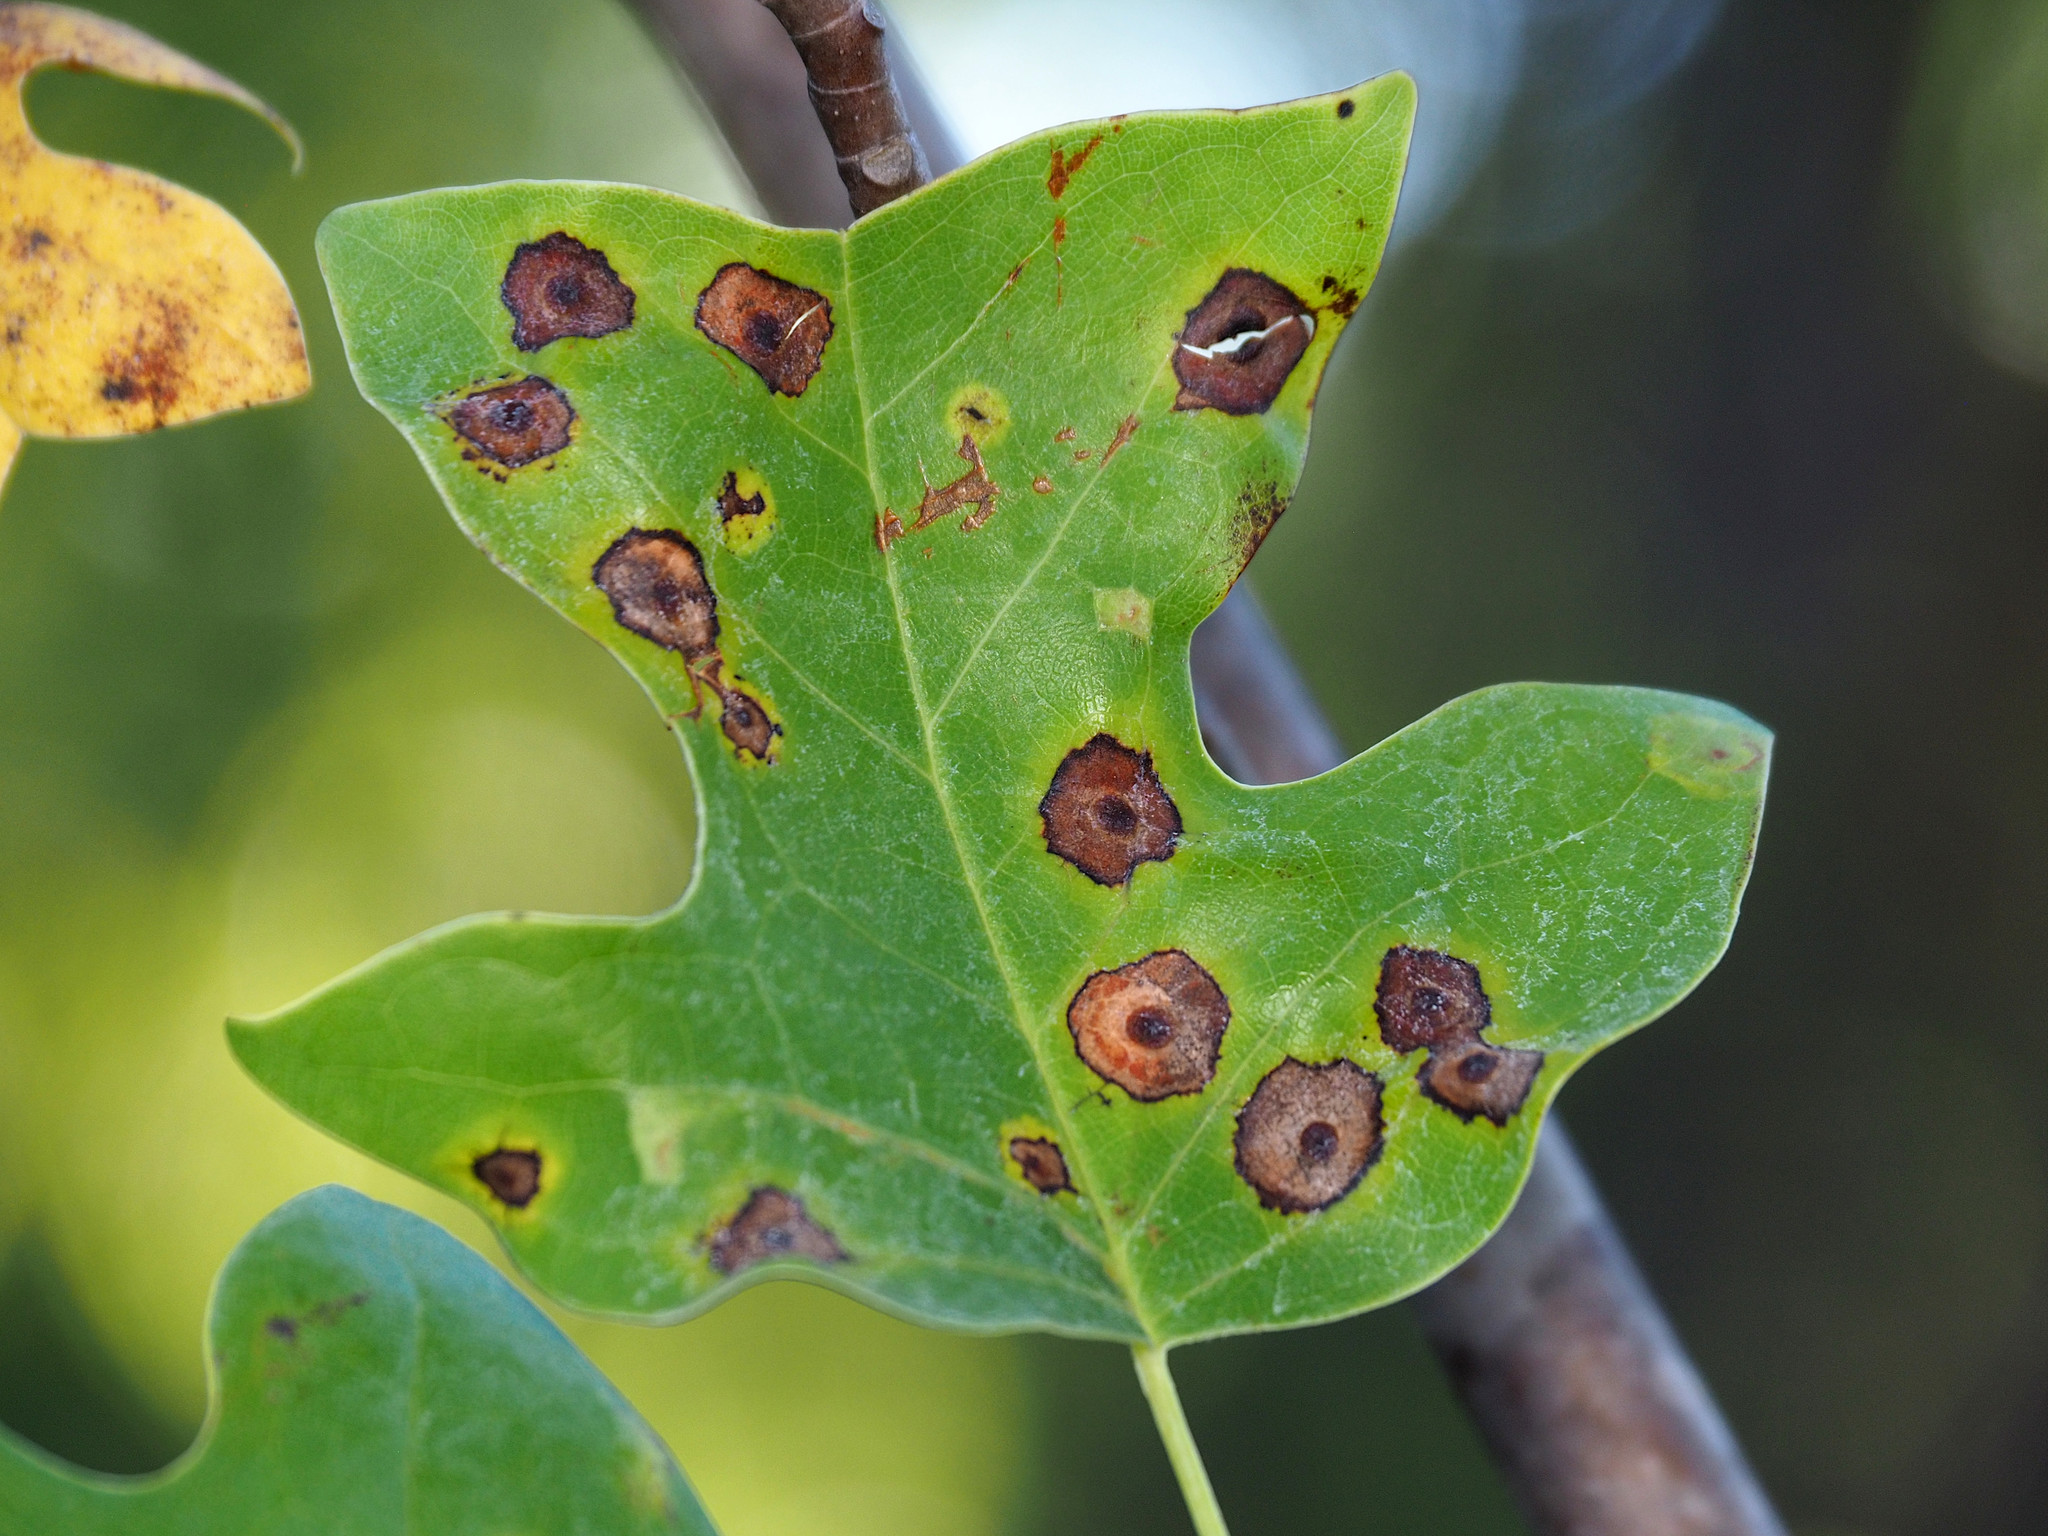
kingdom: Animalia
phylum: Arthropoda
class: Insecta
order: Diptera
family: Cecidomyiidae
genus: Resseliella
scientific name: Resseliella liriodendri
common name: Tulip tree leaf spot gall midge
